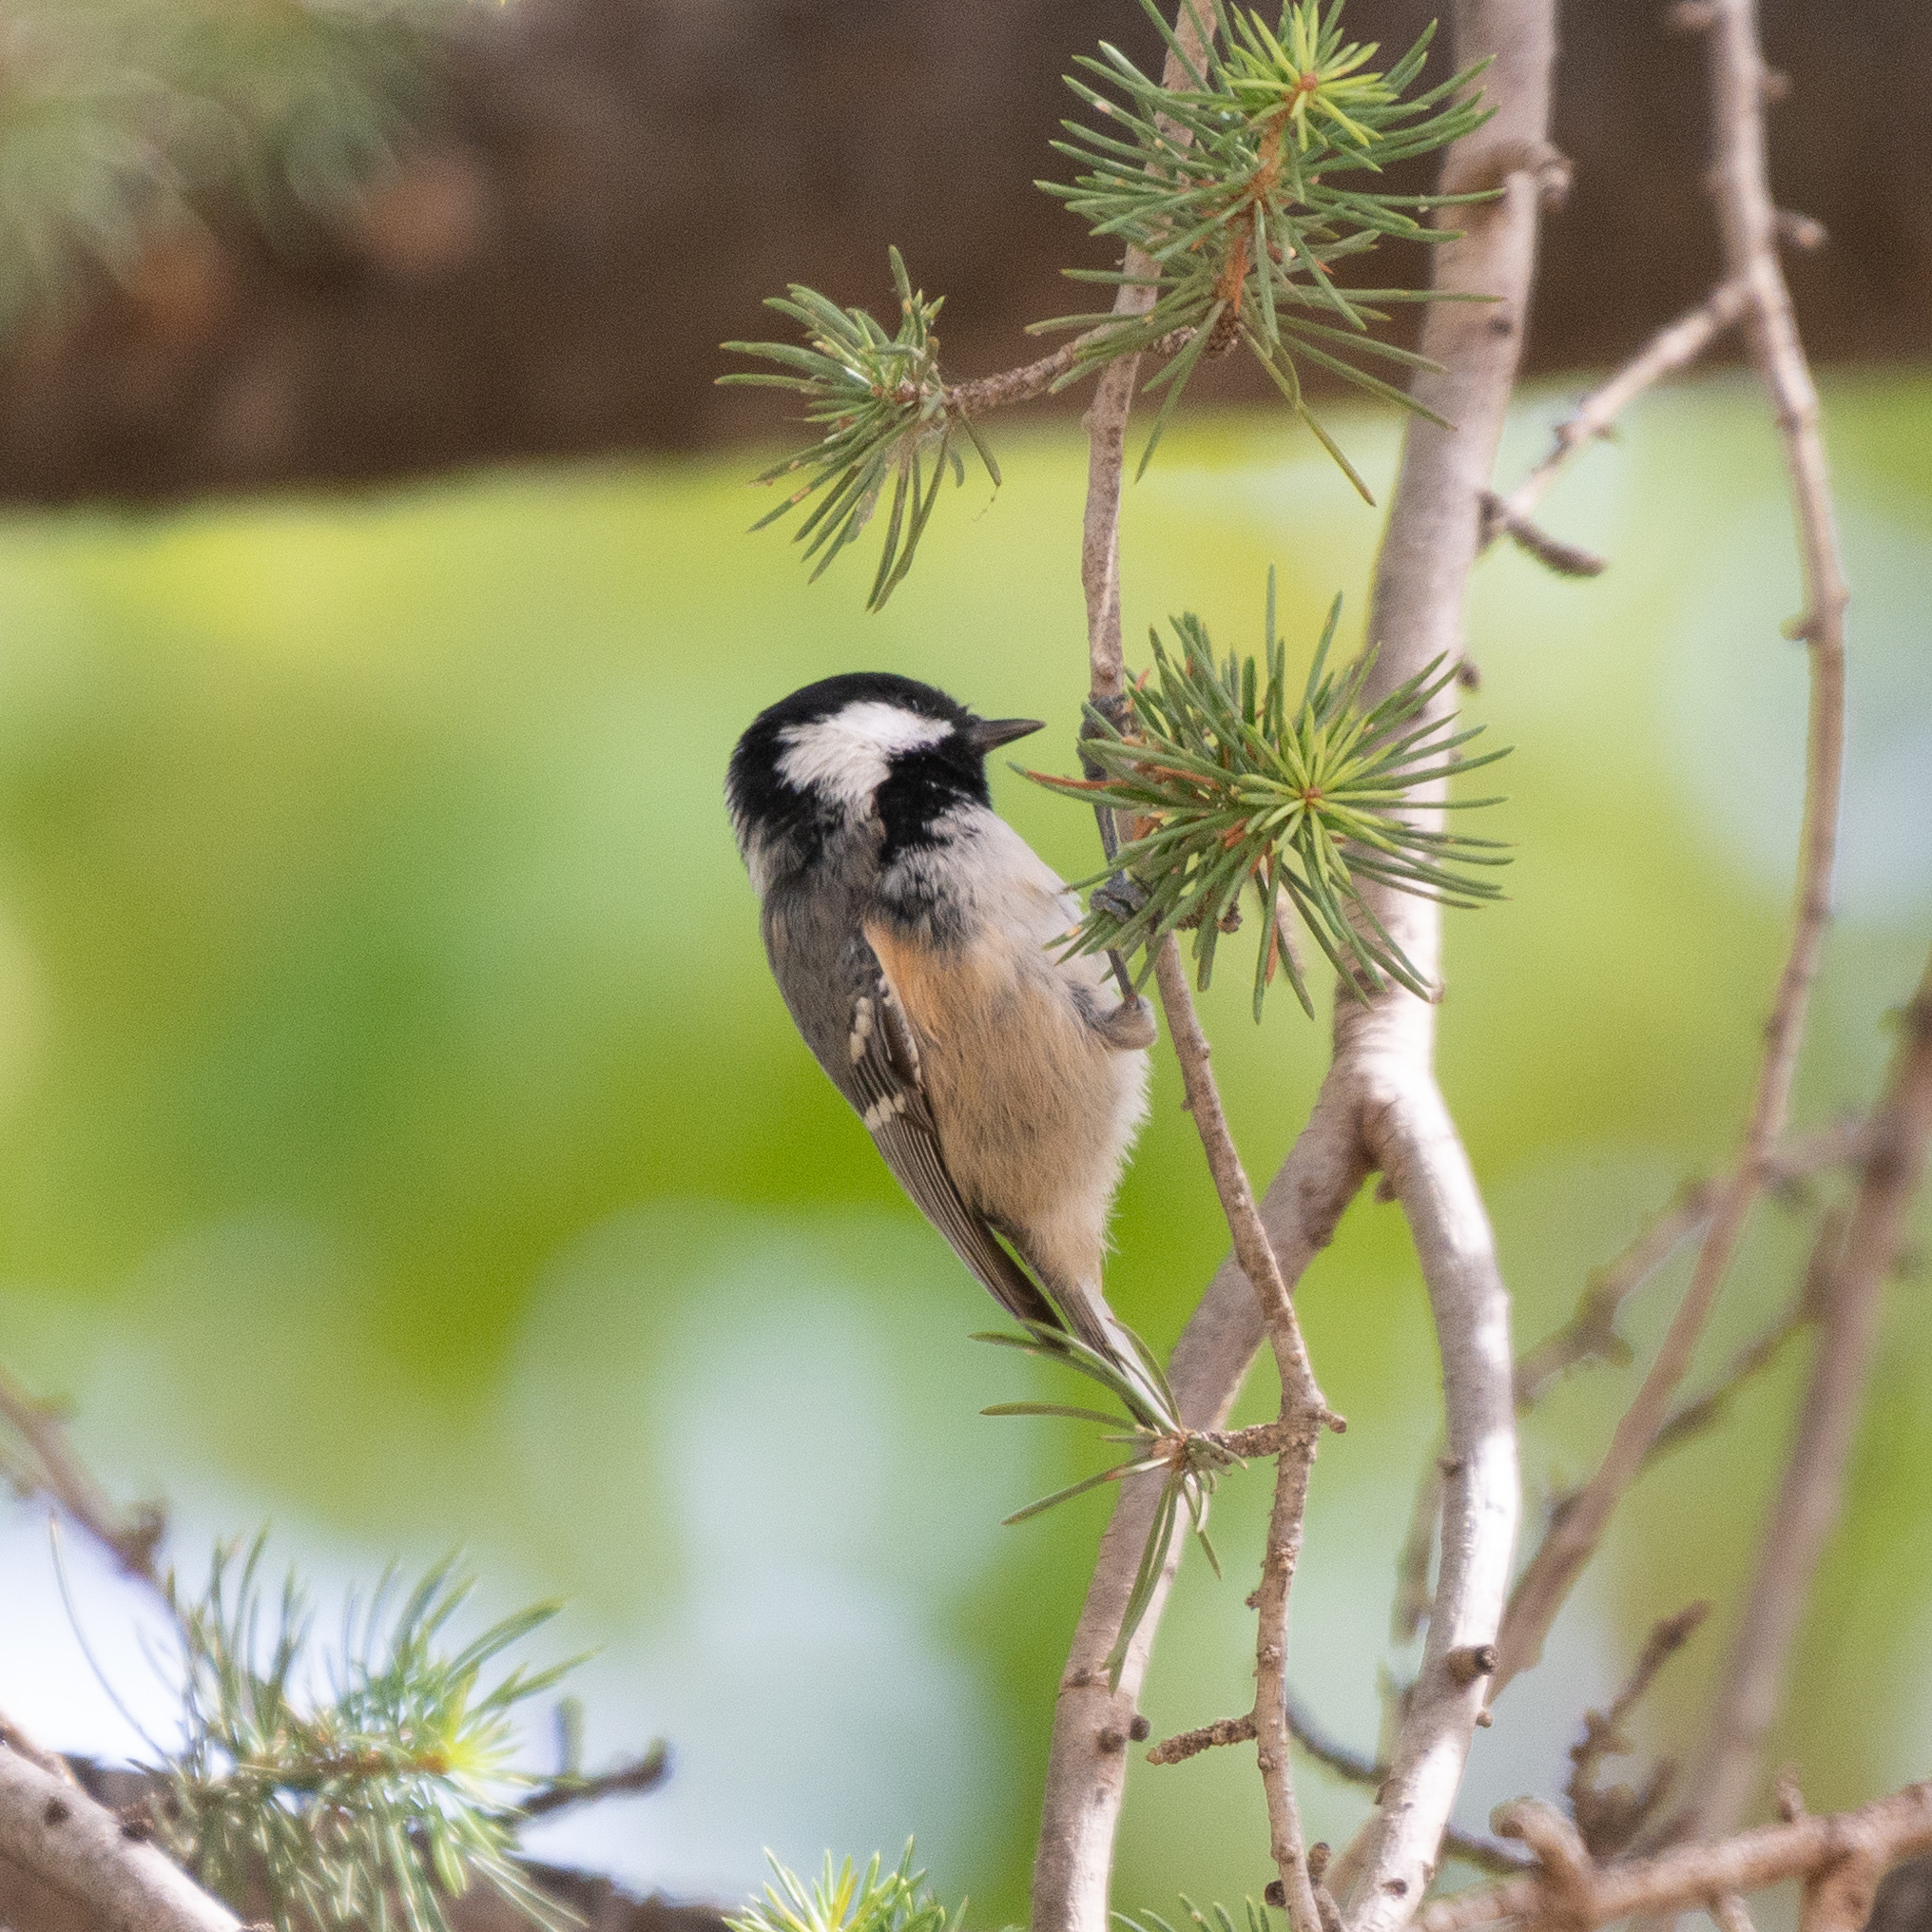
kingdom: Animalia
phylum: Chordata
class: Aves
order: Passeriformes
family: Paridae
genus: Periparus
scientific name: Periparus ater
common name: Coal tit
